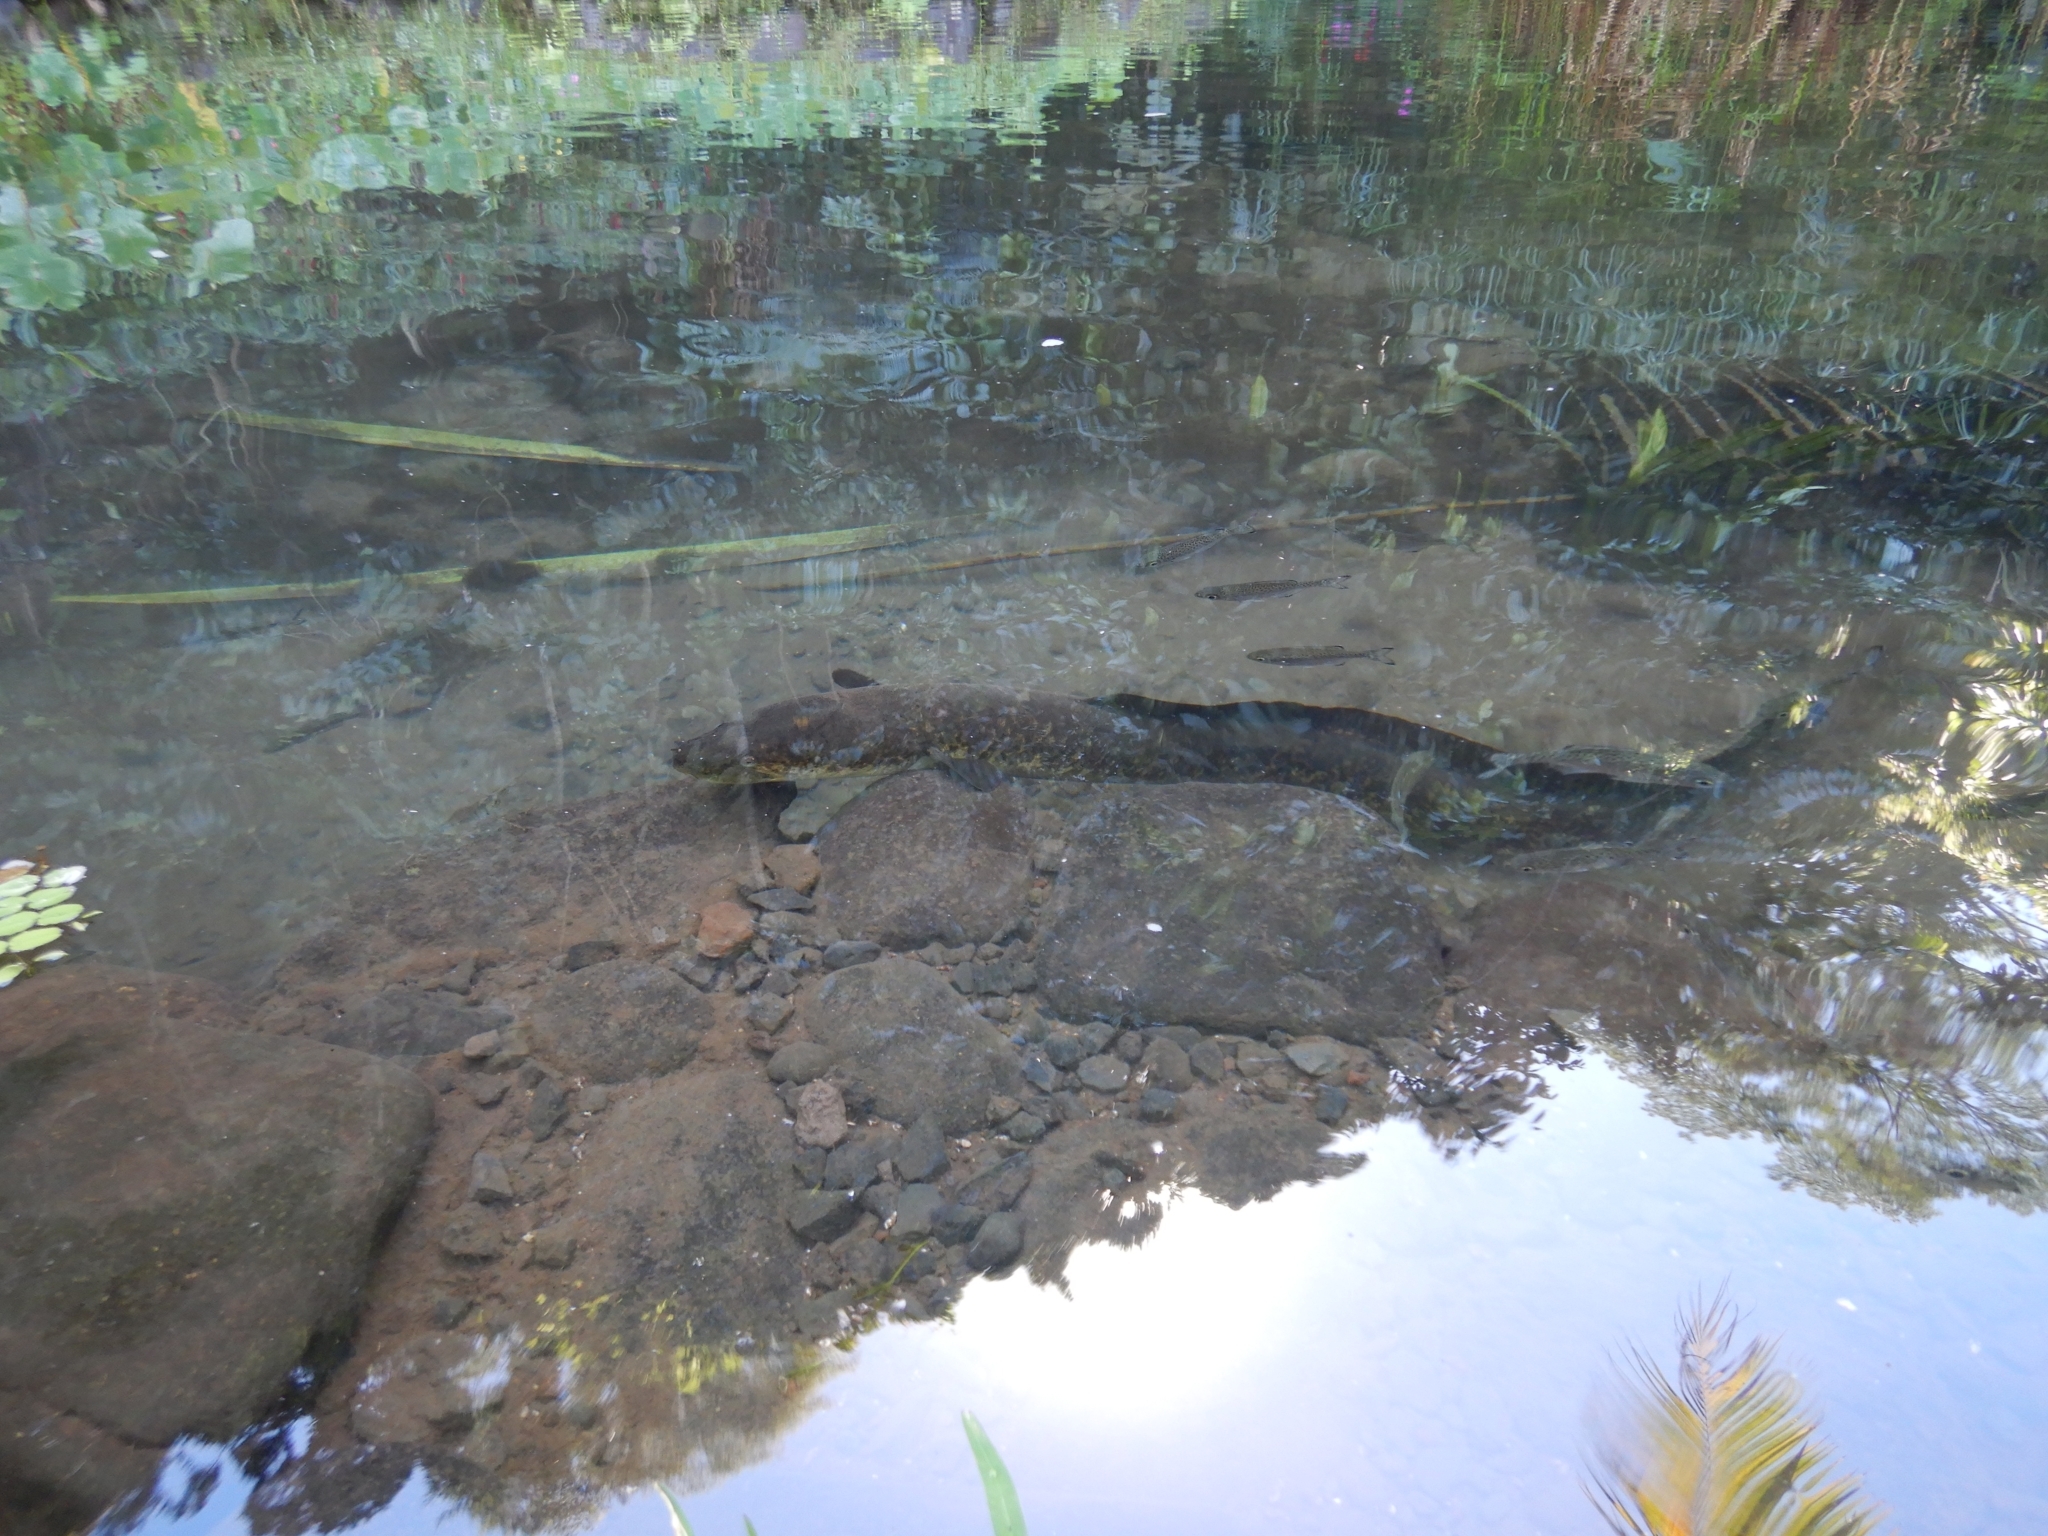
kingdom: Animalia
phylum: Chordata
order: Anguilliformes
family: Anguillidae
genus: Anguilla
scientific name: Anguilla marmorata
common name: Giant mottled eel
